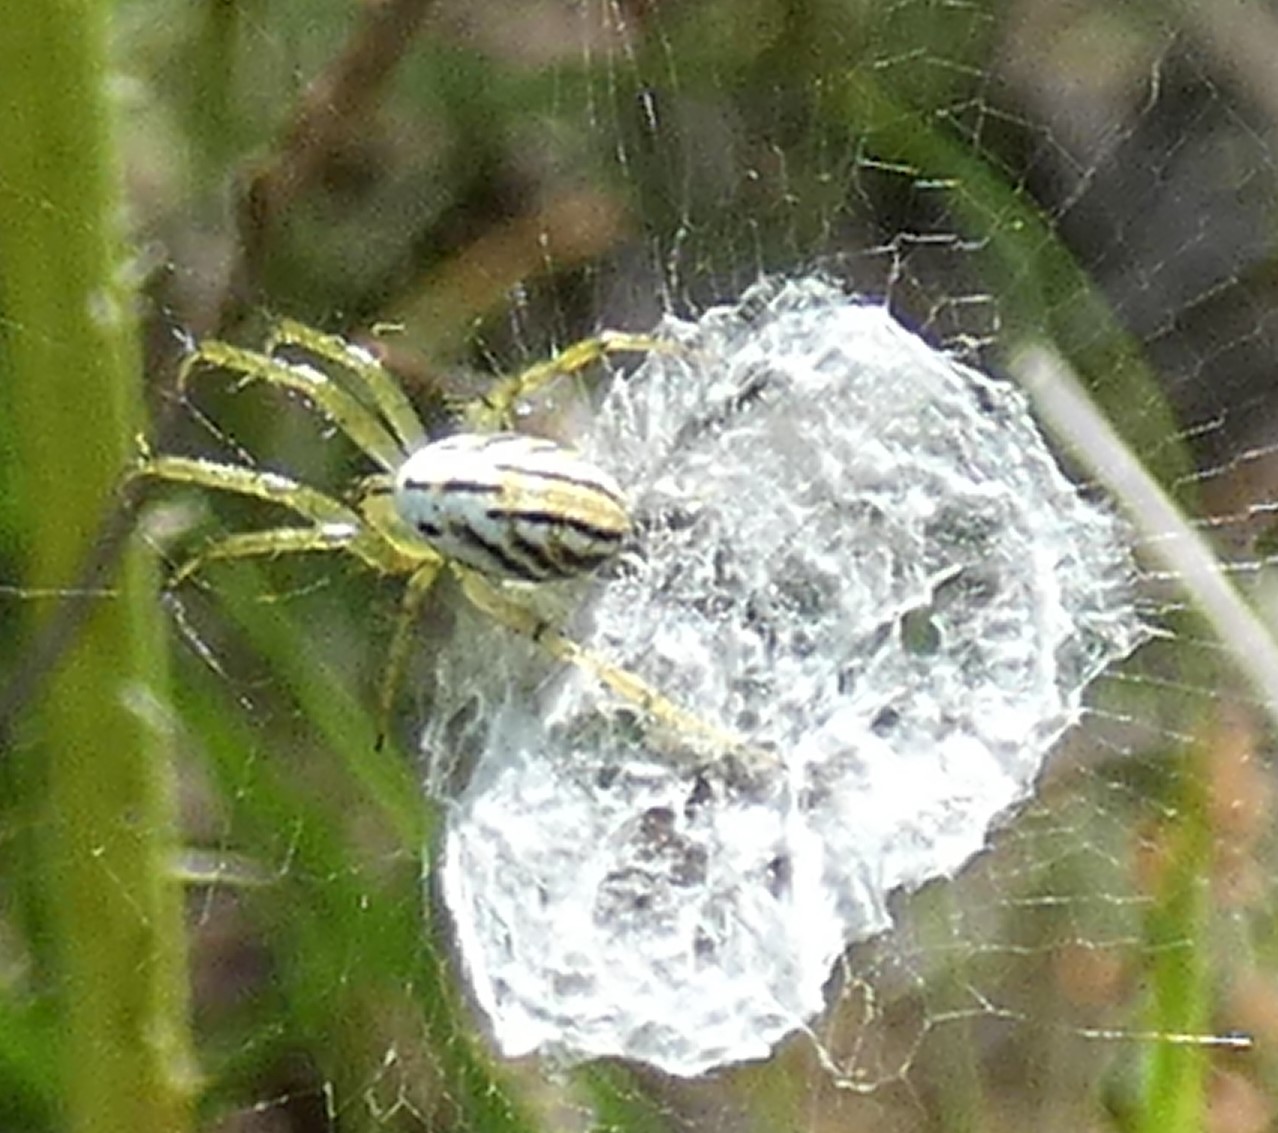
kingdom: Animalia
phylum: Arthropoda
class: Arachnida
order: Araneae
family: Araneidae
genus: Mangora
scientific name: Mangora gibberosa
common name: Lined orbweaver
